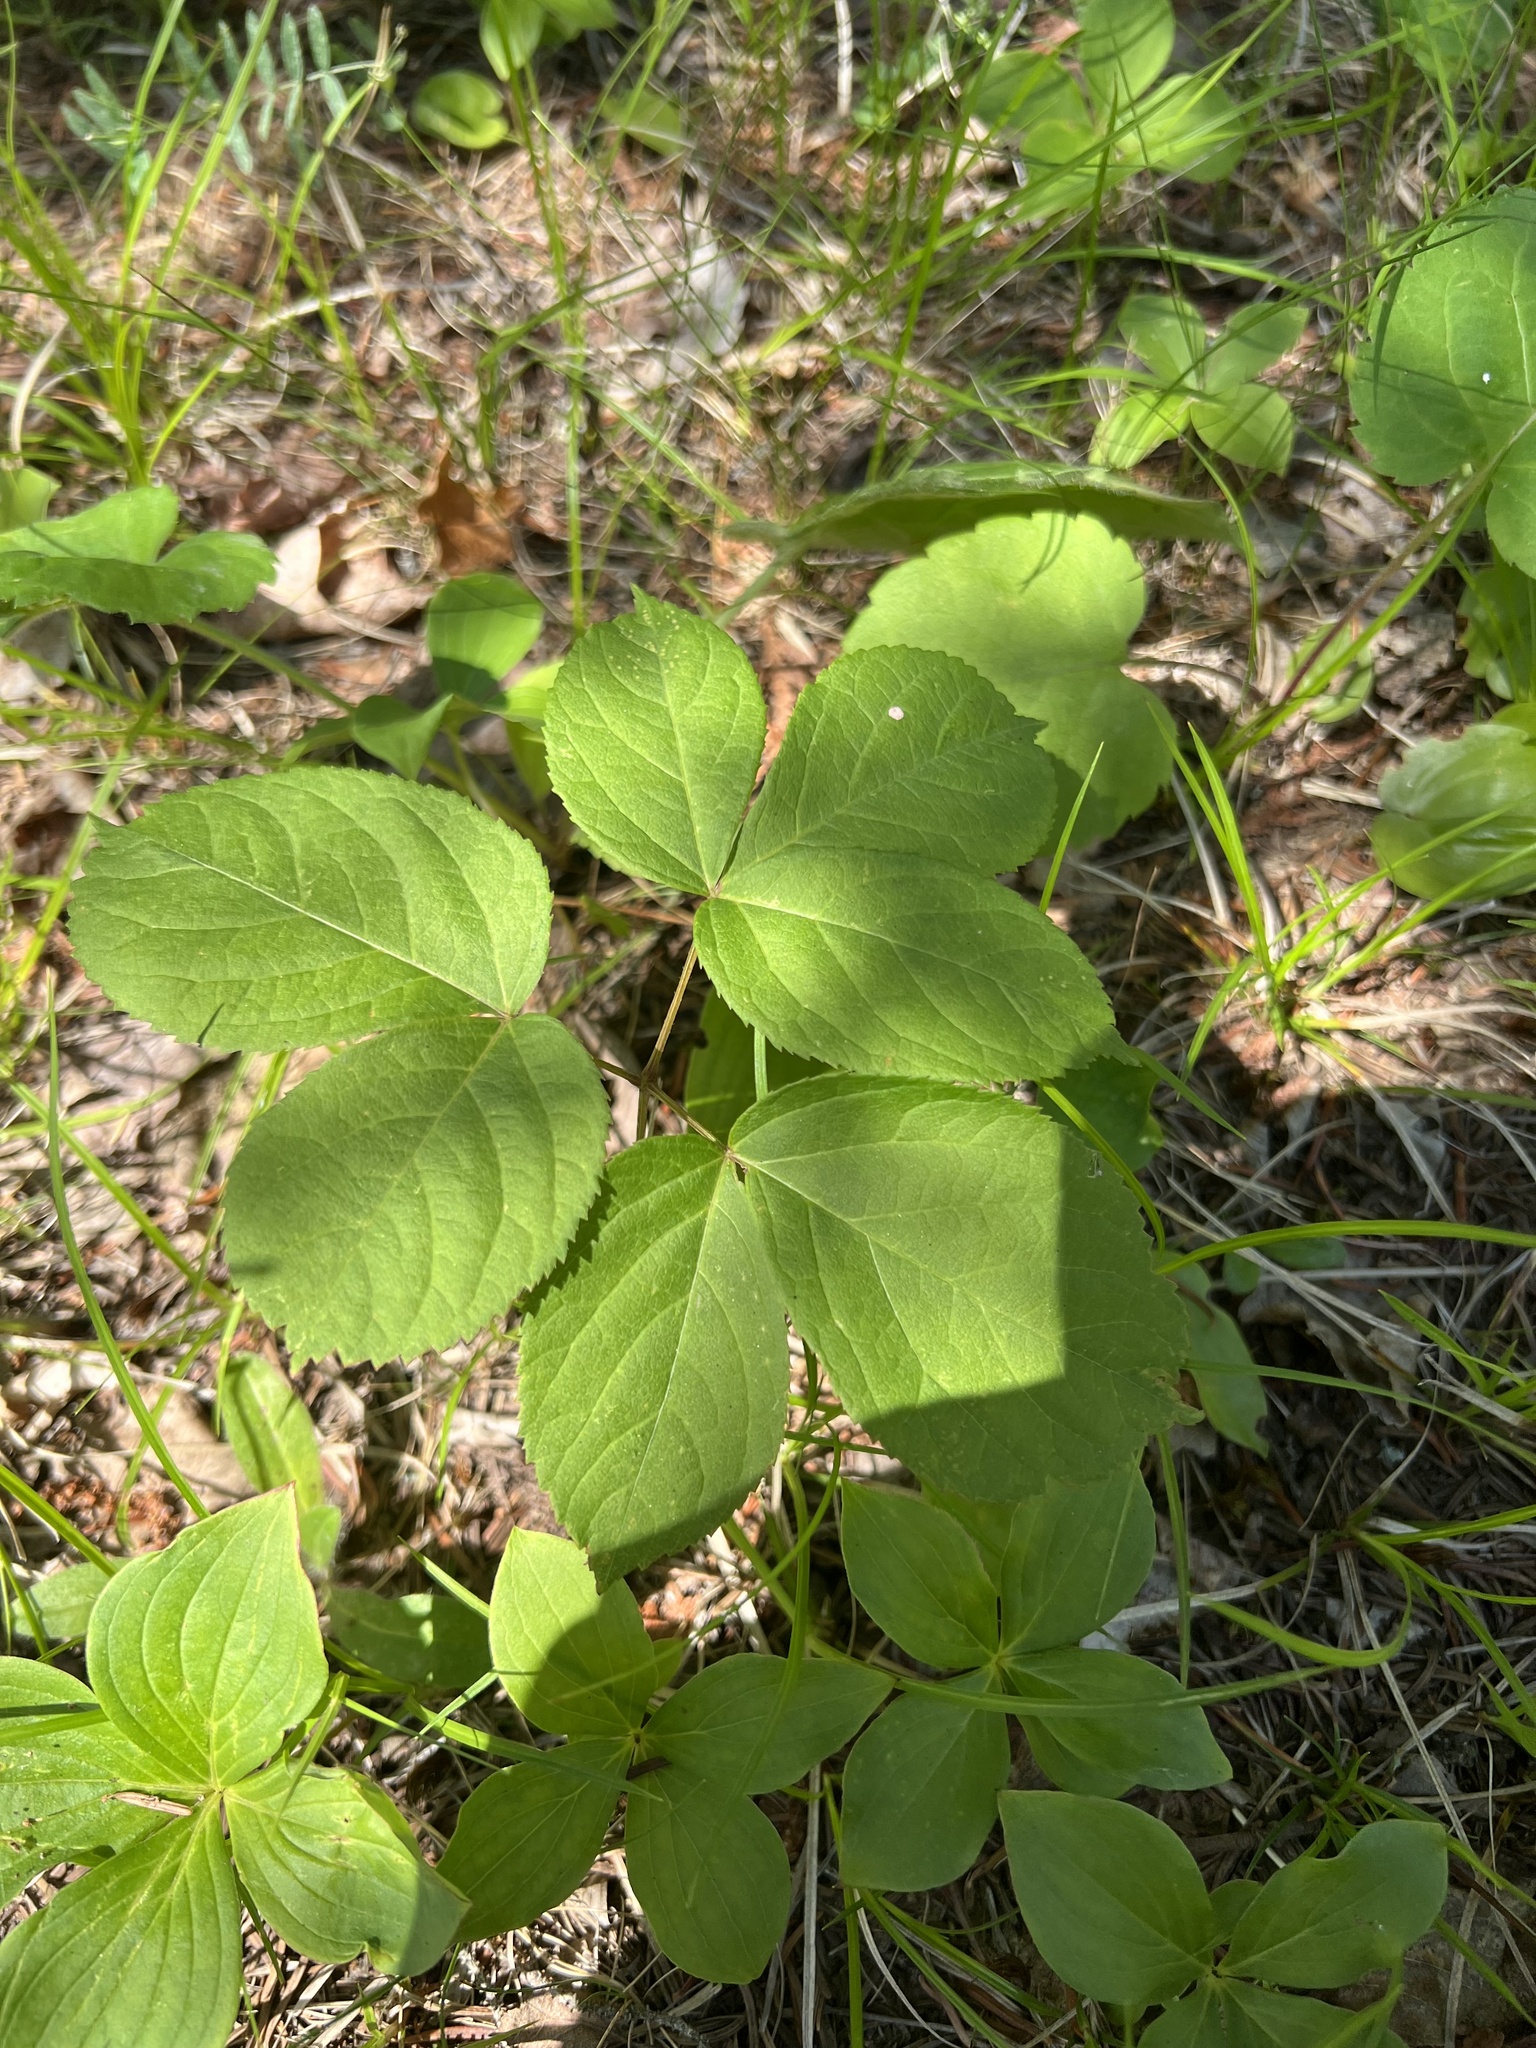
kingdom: Plantae
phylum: Tracheophyta
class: Magnoliopsida
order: Apiales
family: Araliaceae
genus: Aralia
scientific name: Aralia nudicaulis
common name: Wild sarsaparilla
